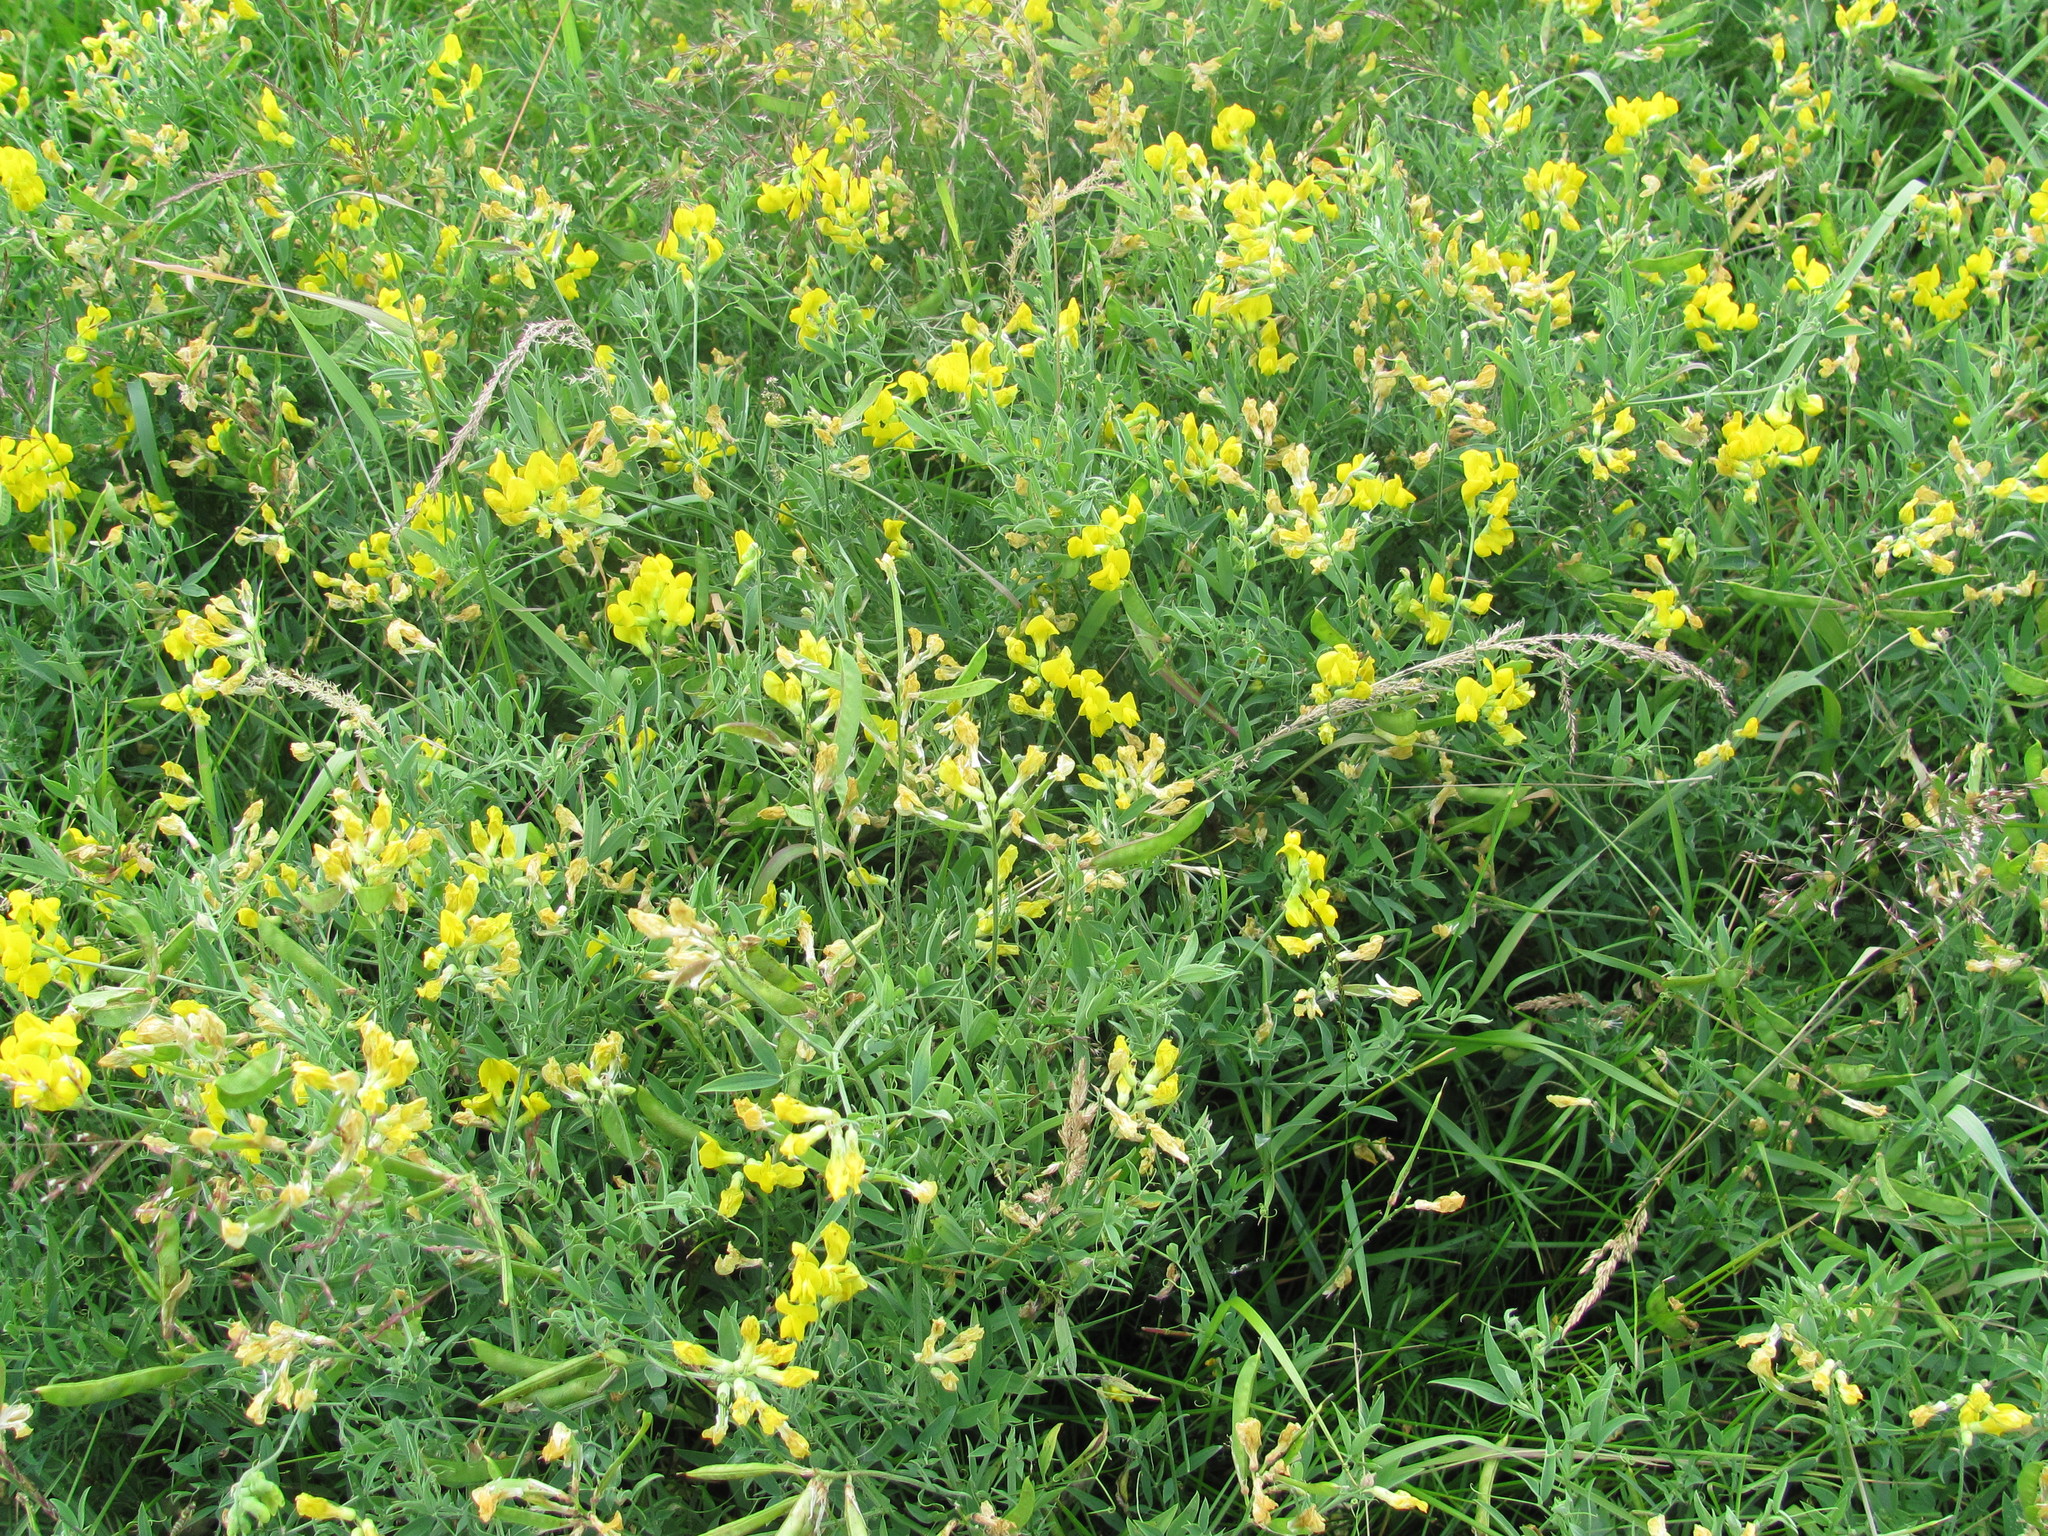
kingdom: Plantae
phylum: Tracheophyta
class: Magnoliopsida
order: Fabales
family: Fabaceae
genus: Lathyrus
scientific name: Lathyrus pratensis
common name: Meadow vetchling
